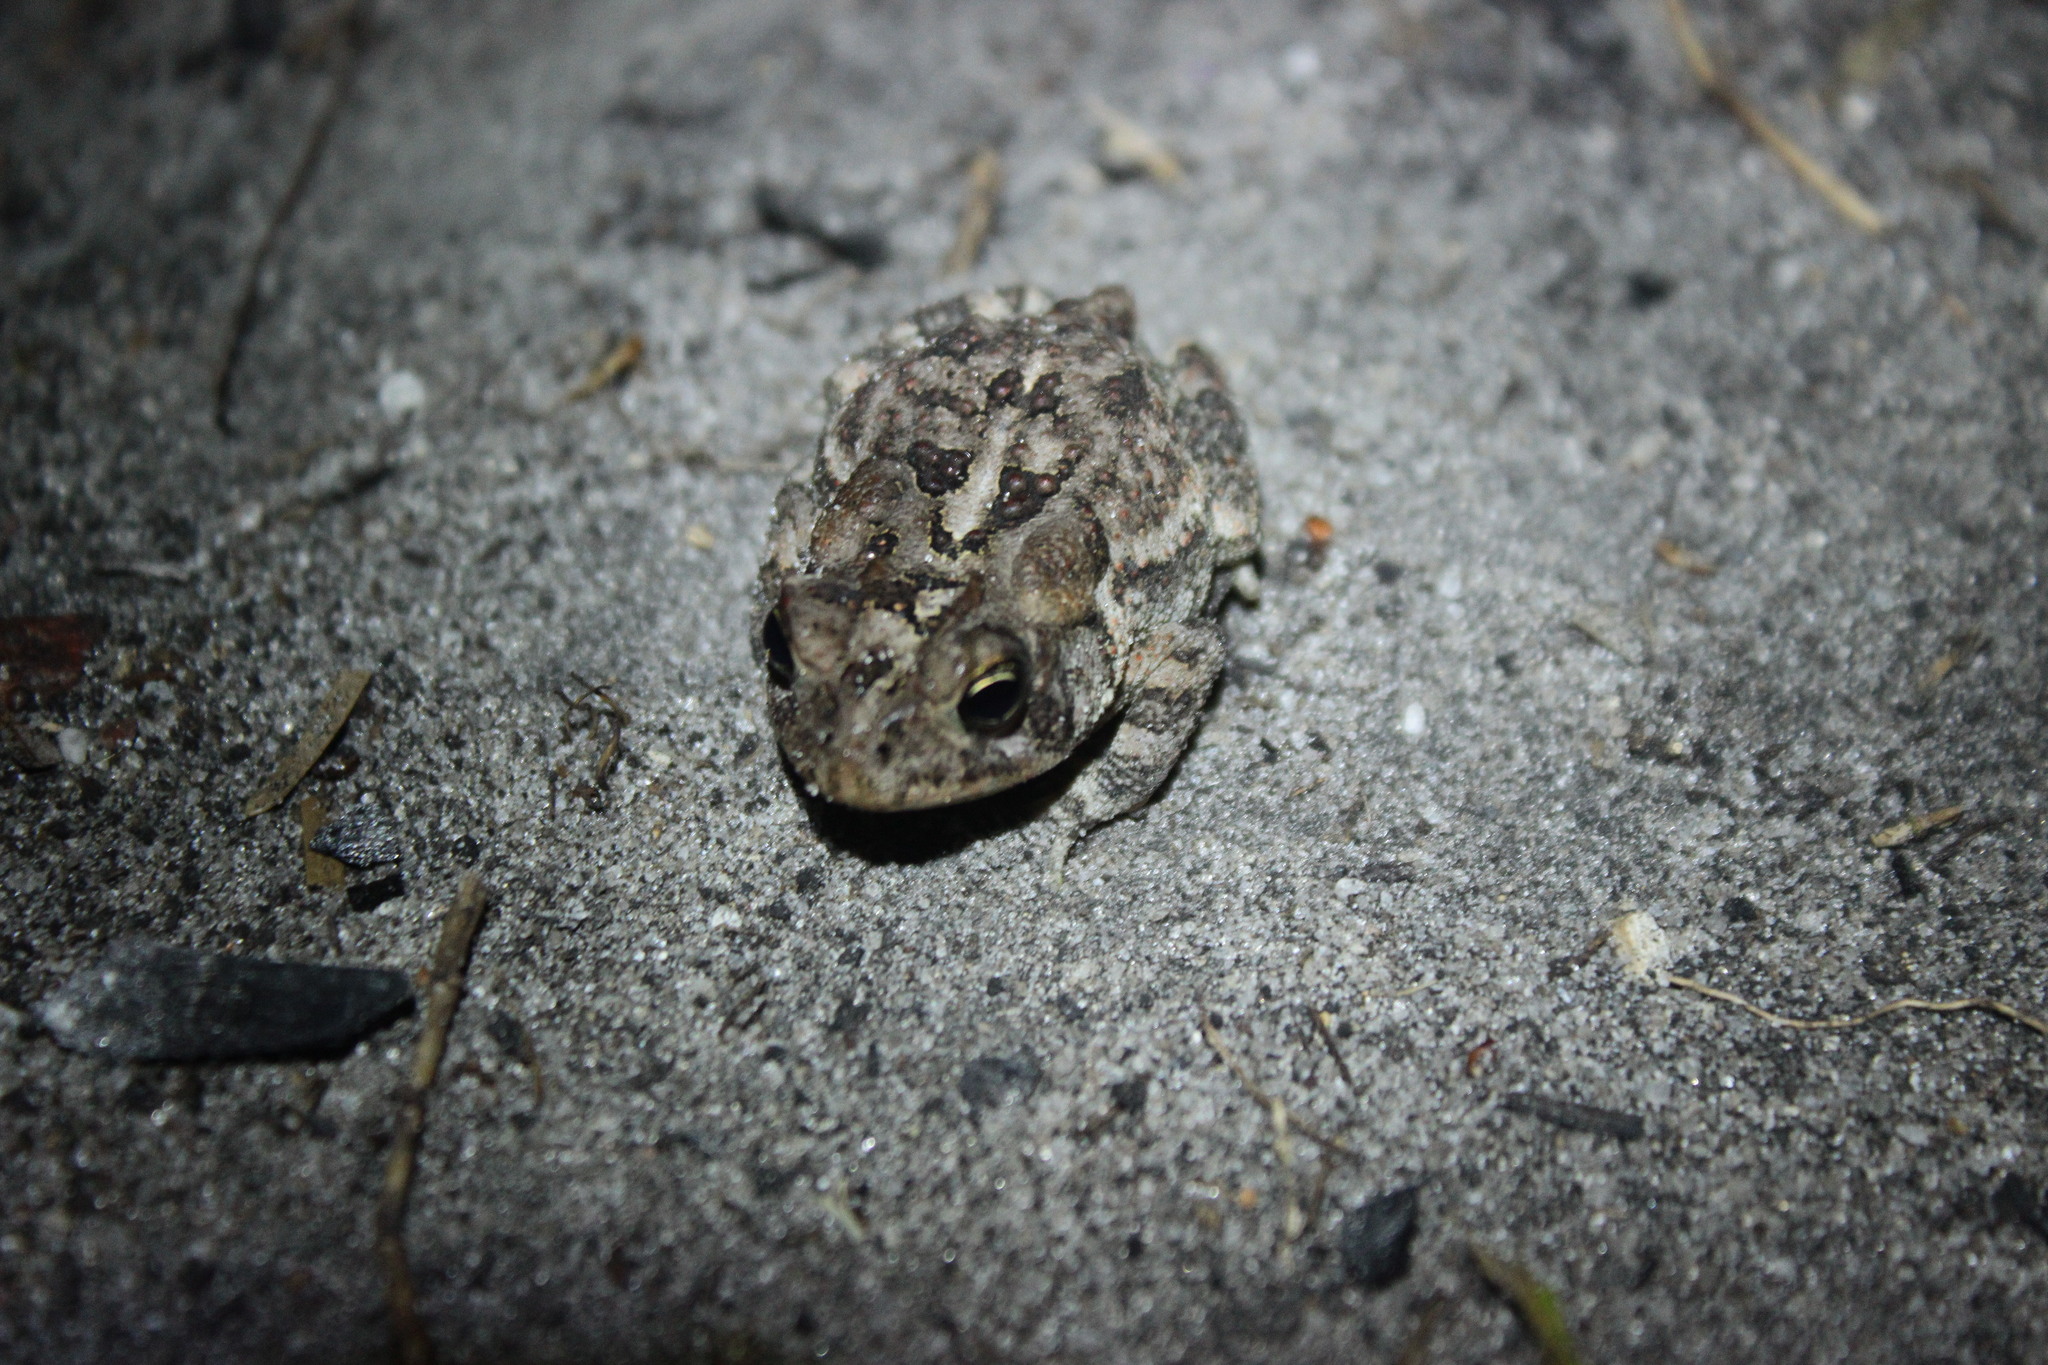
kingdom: Animalia
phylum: Chordata
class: Amphibia
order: Anura
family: Bufonidae
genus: Anaxyrus
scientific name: Anaxyrus terrestris
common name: Southern toad
